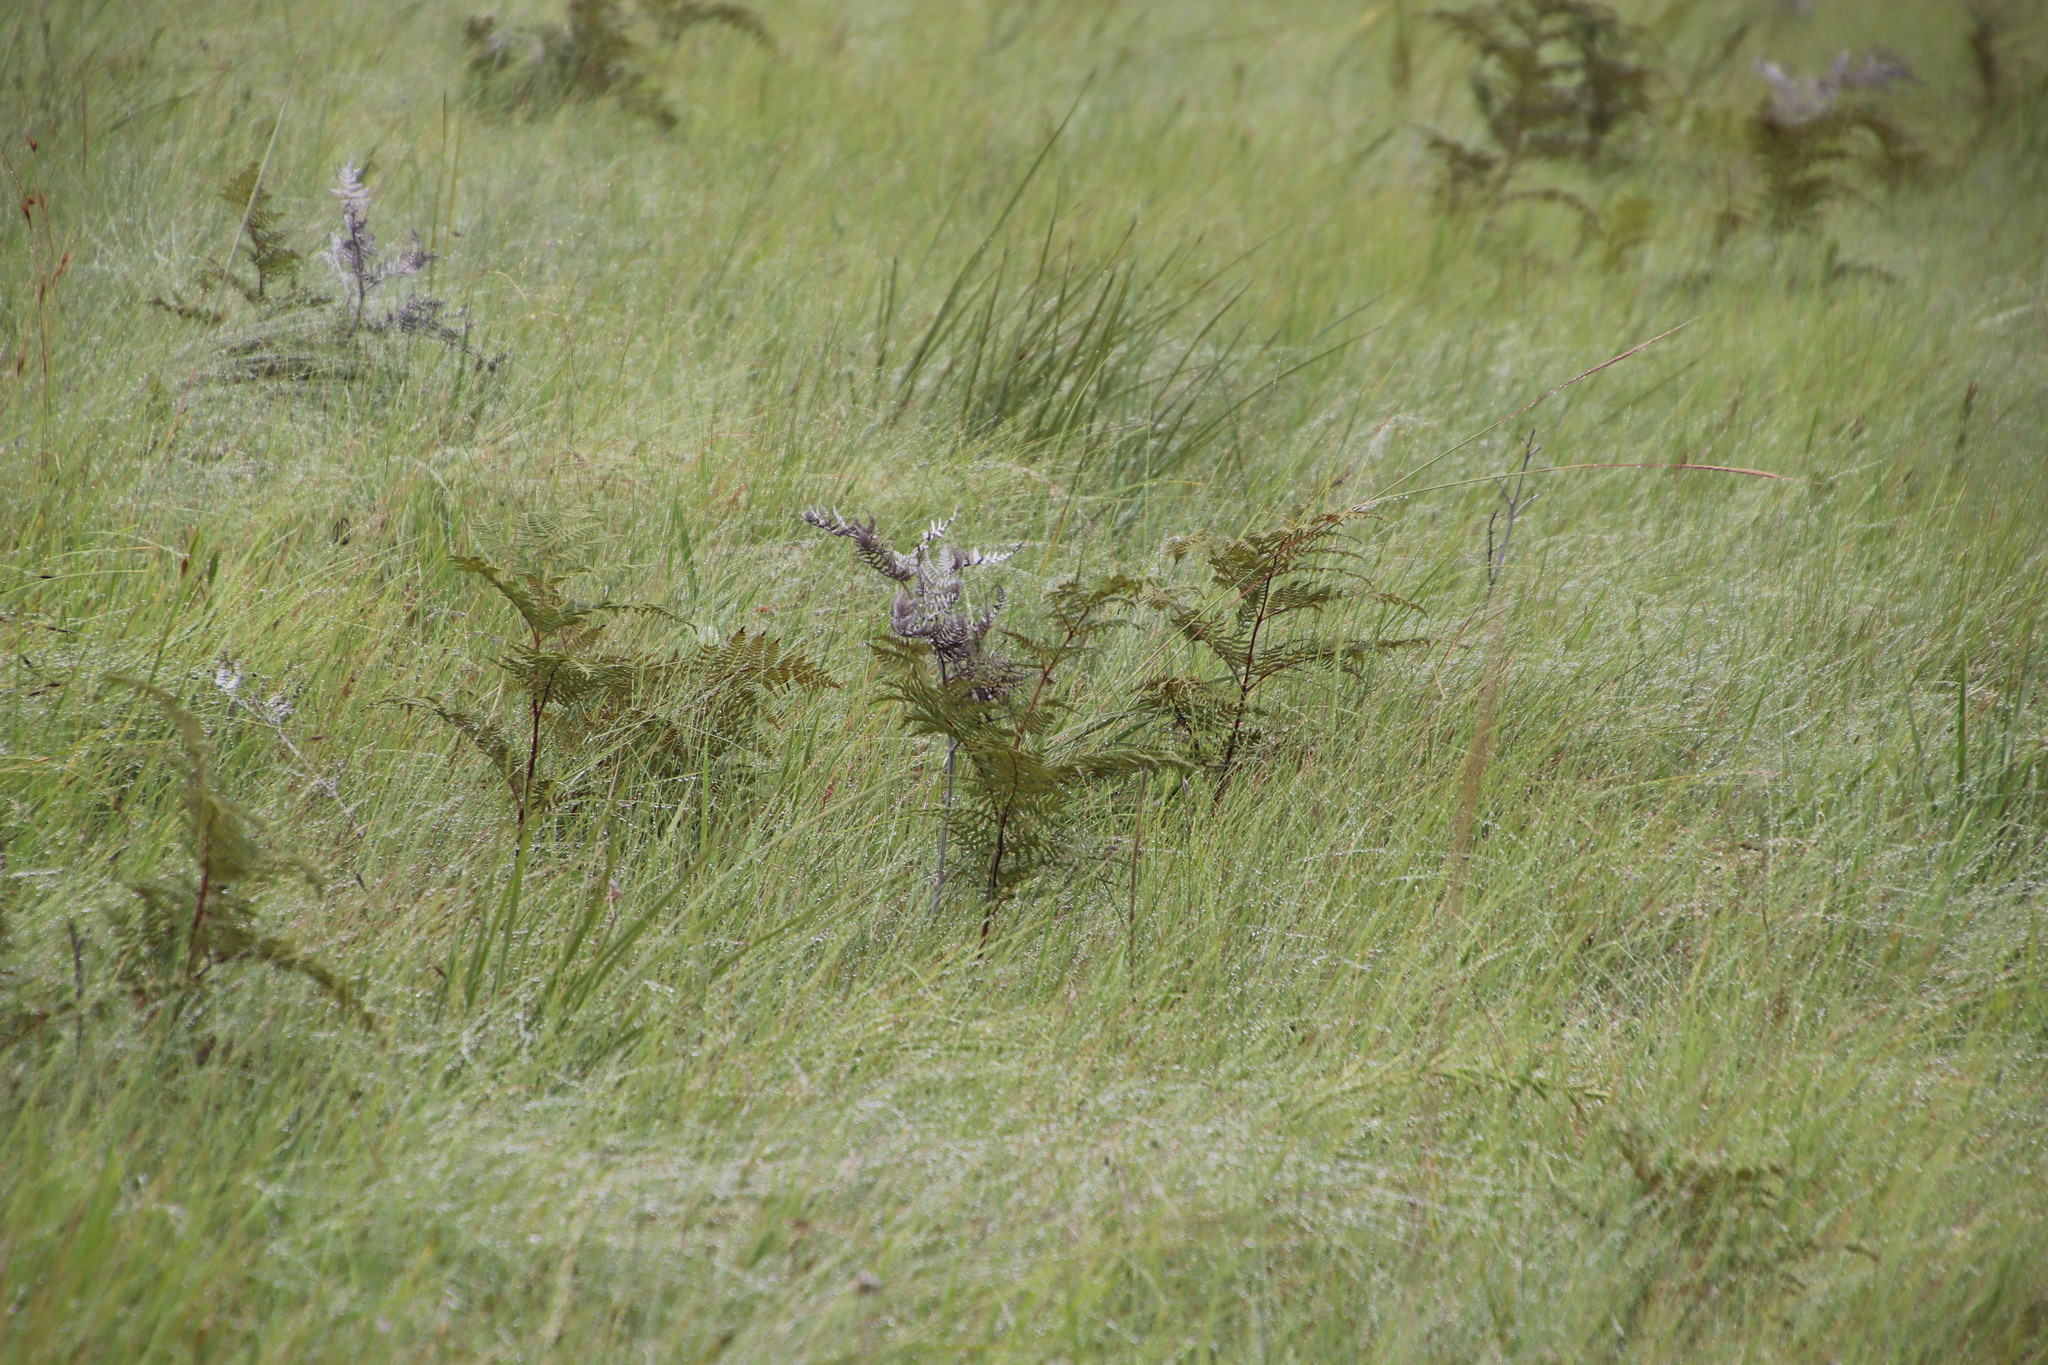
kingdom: Plantae
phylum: Tracheophyta
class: Polypodiopsida
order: Polypodiales
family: Dennstaedtiaceae
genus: Pteridium
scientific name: Pteridium aquilinum
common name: Bracken
